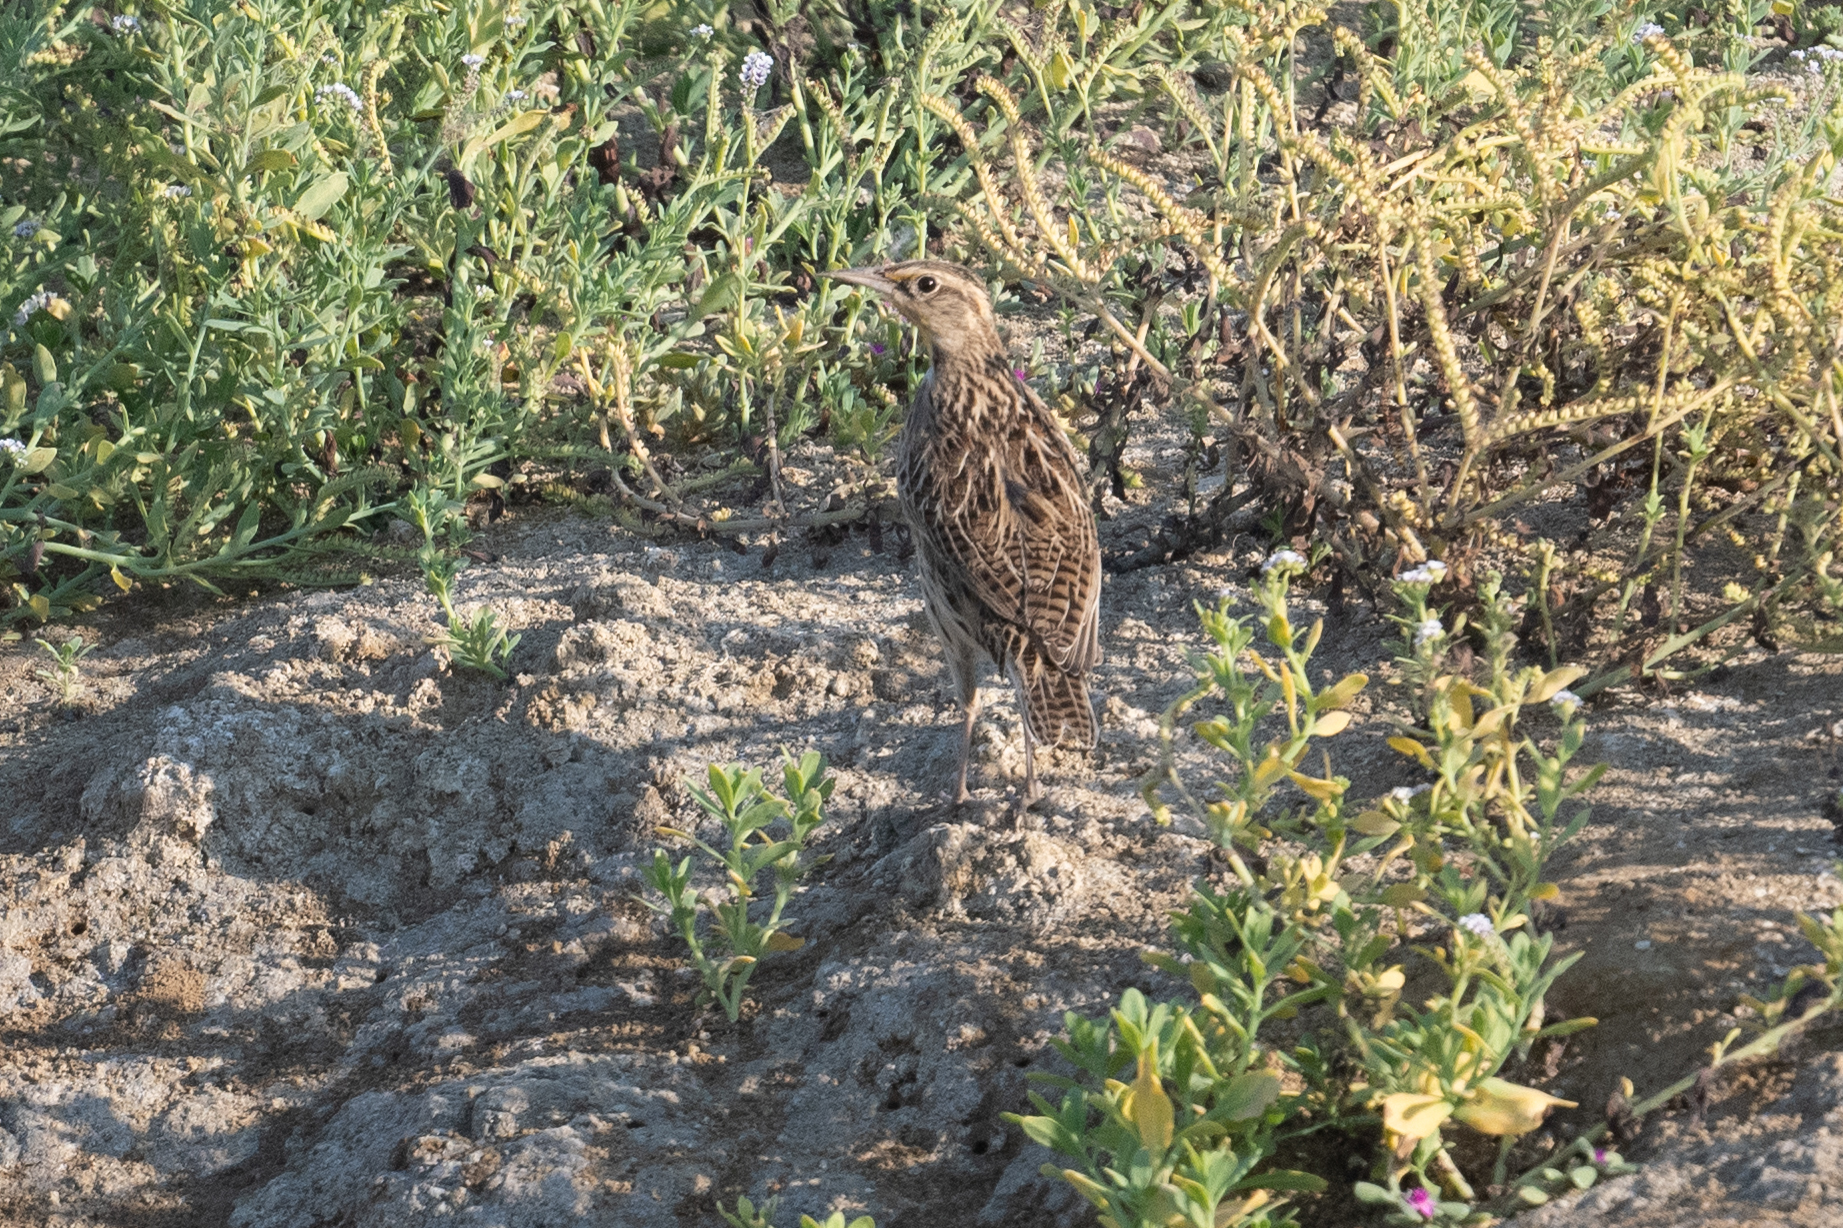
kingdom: Animalia
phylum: Chordata
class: Aves
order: Passeriformes
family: Icteridae
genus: Sturnella
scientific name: Sturnella neglecta
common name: Western meadowlark
